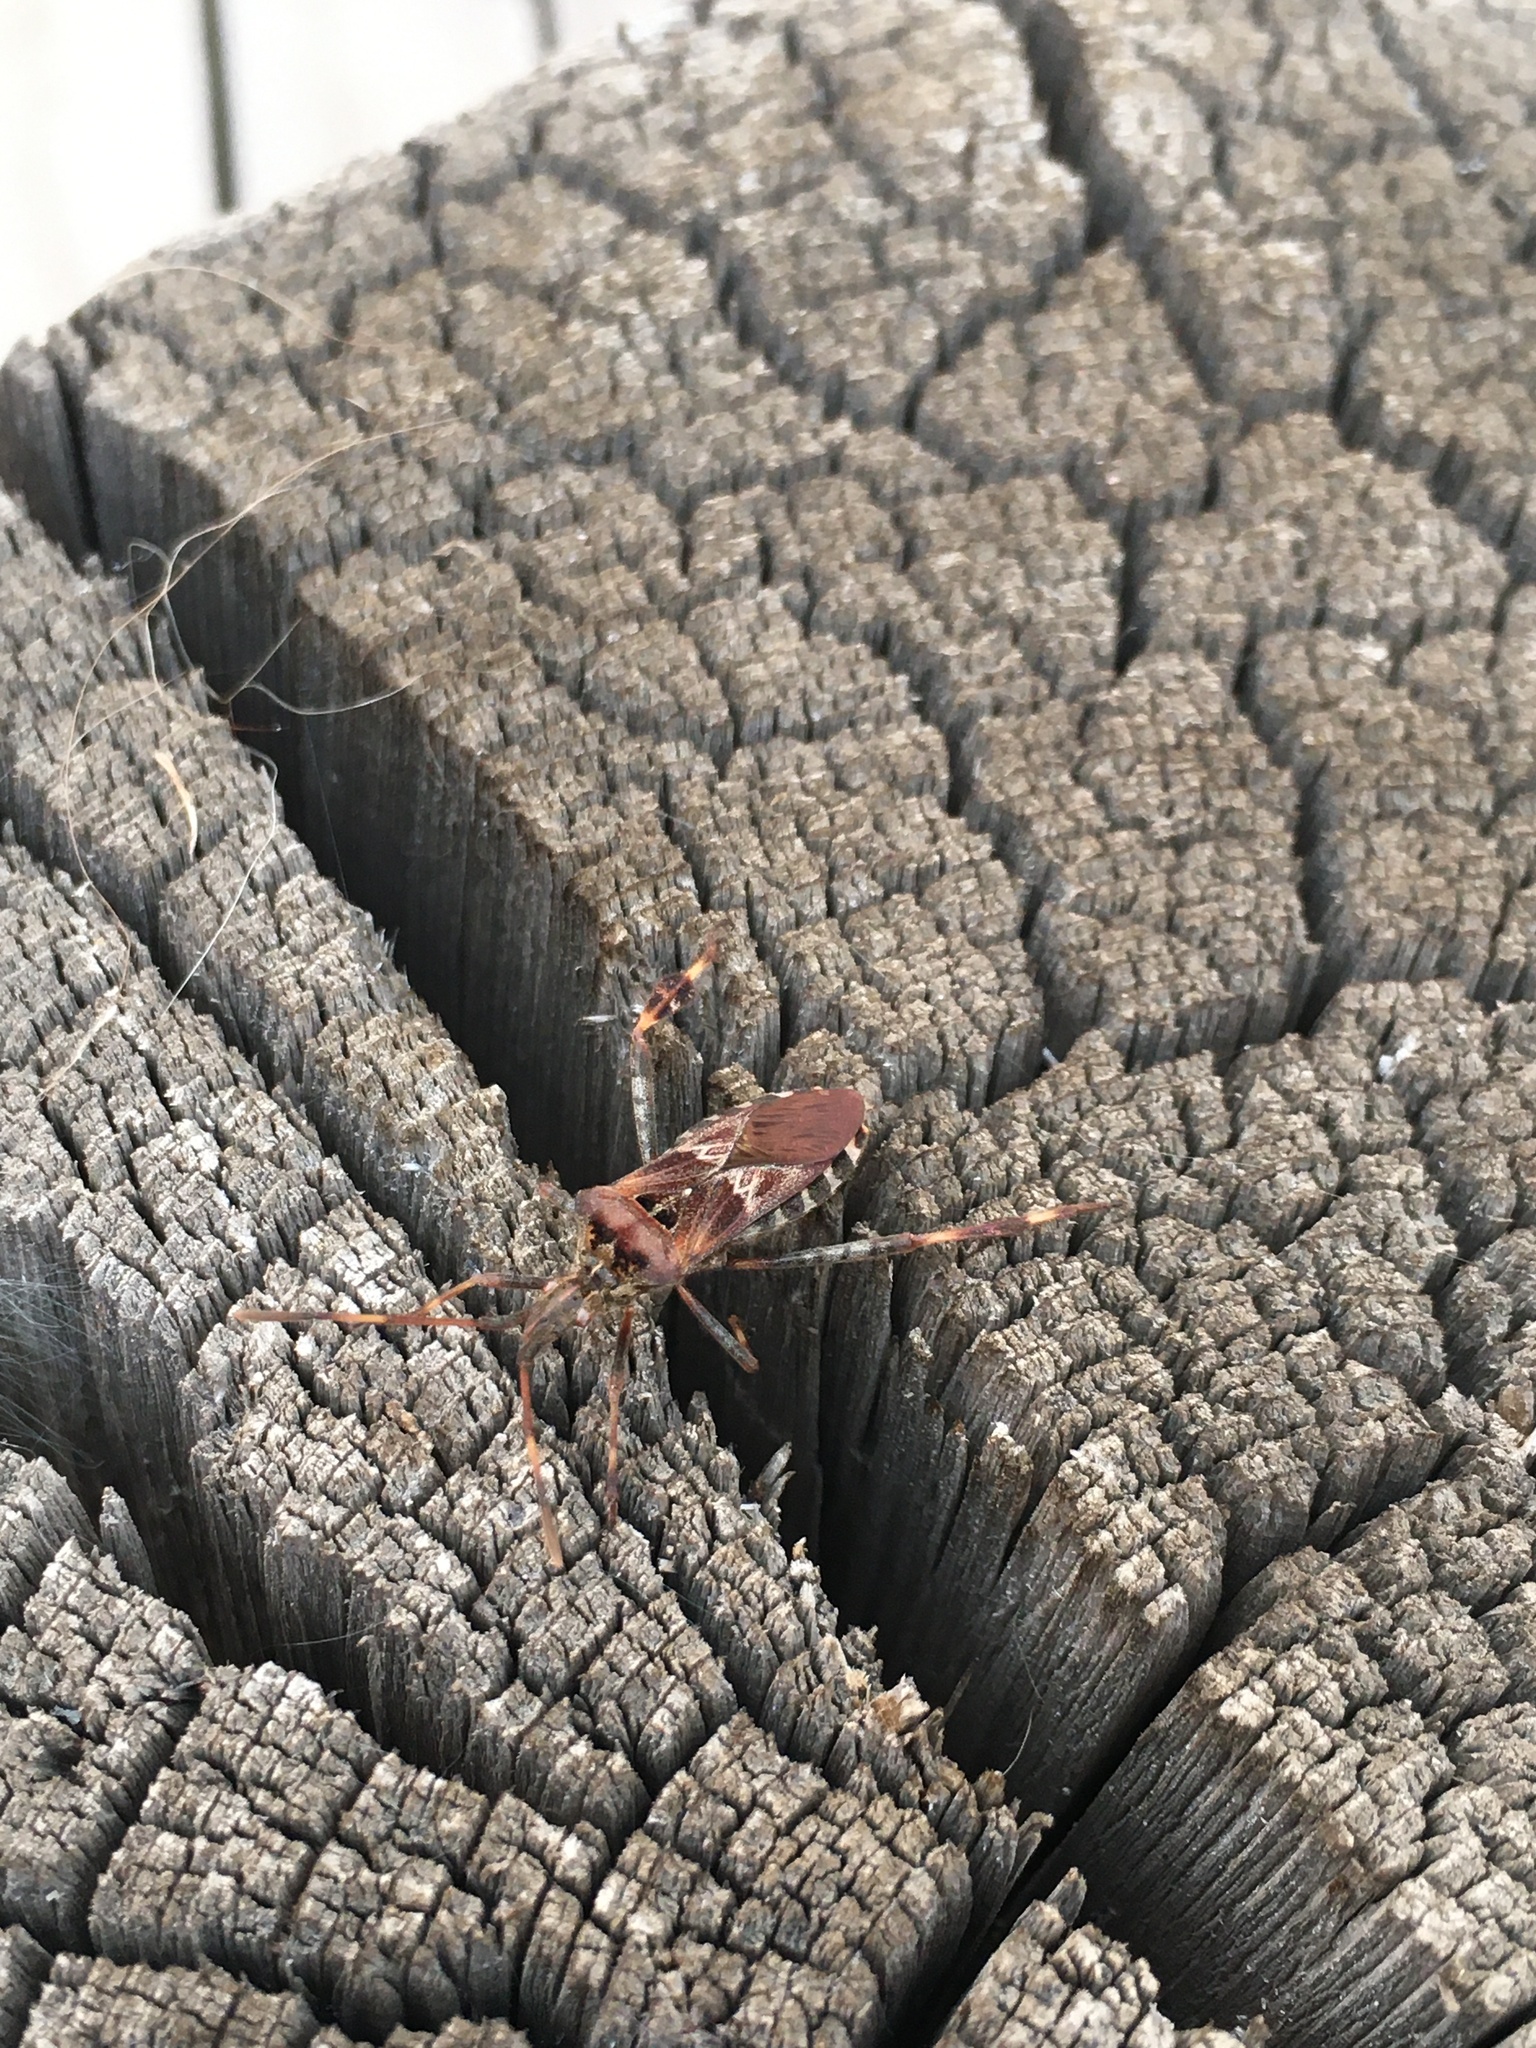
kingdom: Animalia
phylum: Arthropoda
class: Insecta
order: Hemiptera
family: Coreidae
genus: Leptoglossus
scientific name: Leptoglossus occidentalis
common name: Western conifer-seed bug
